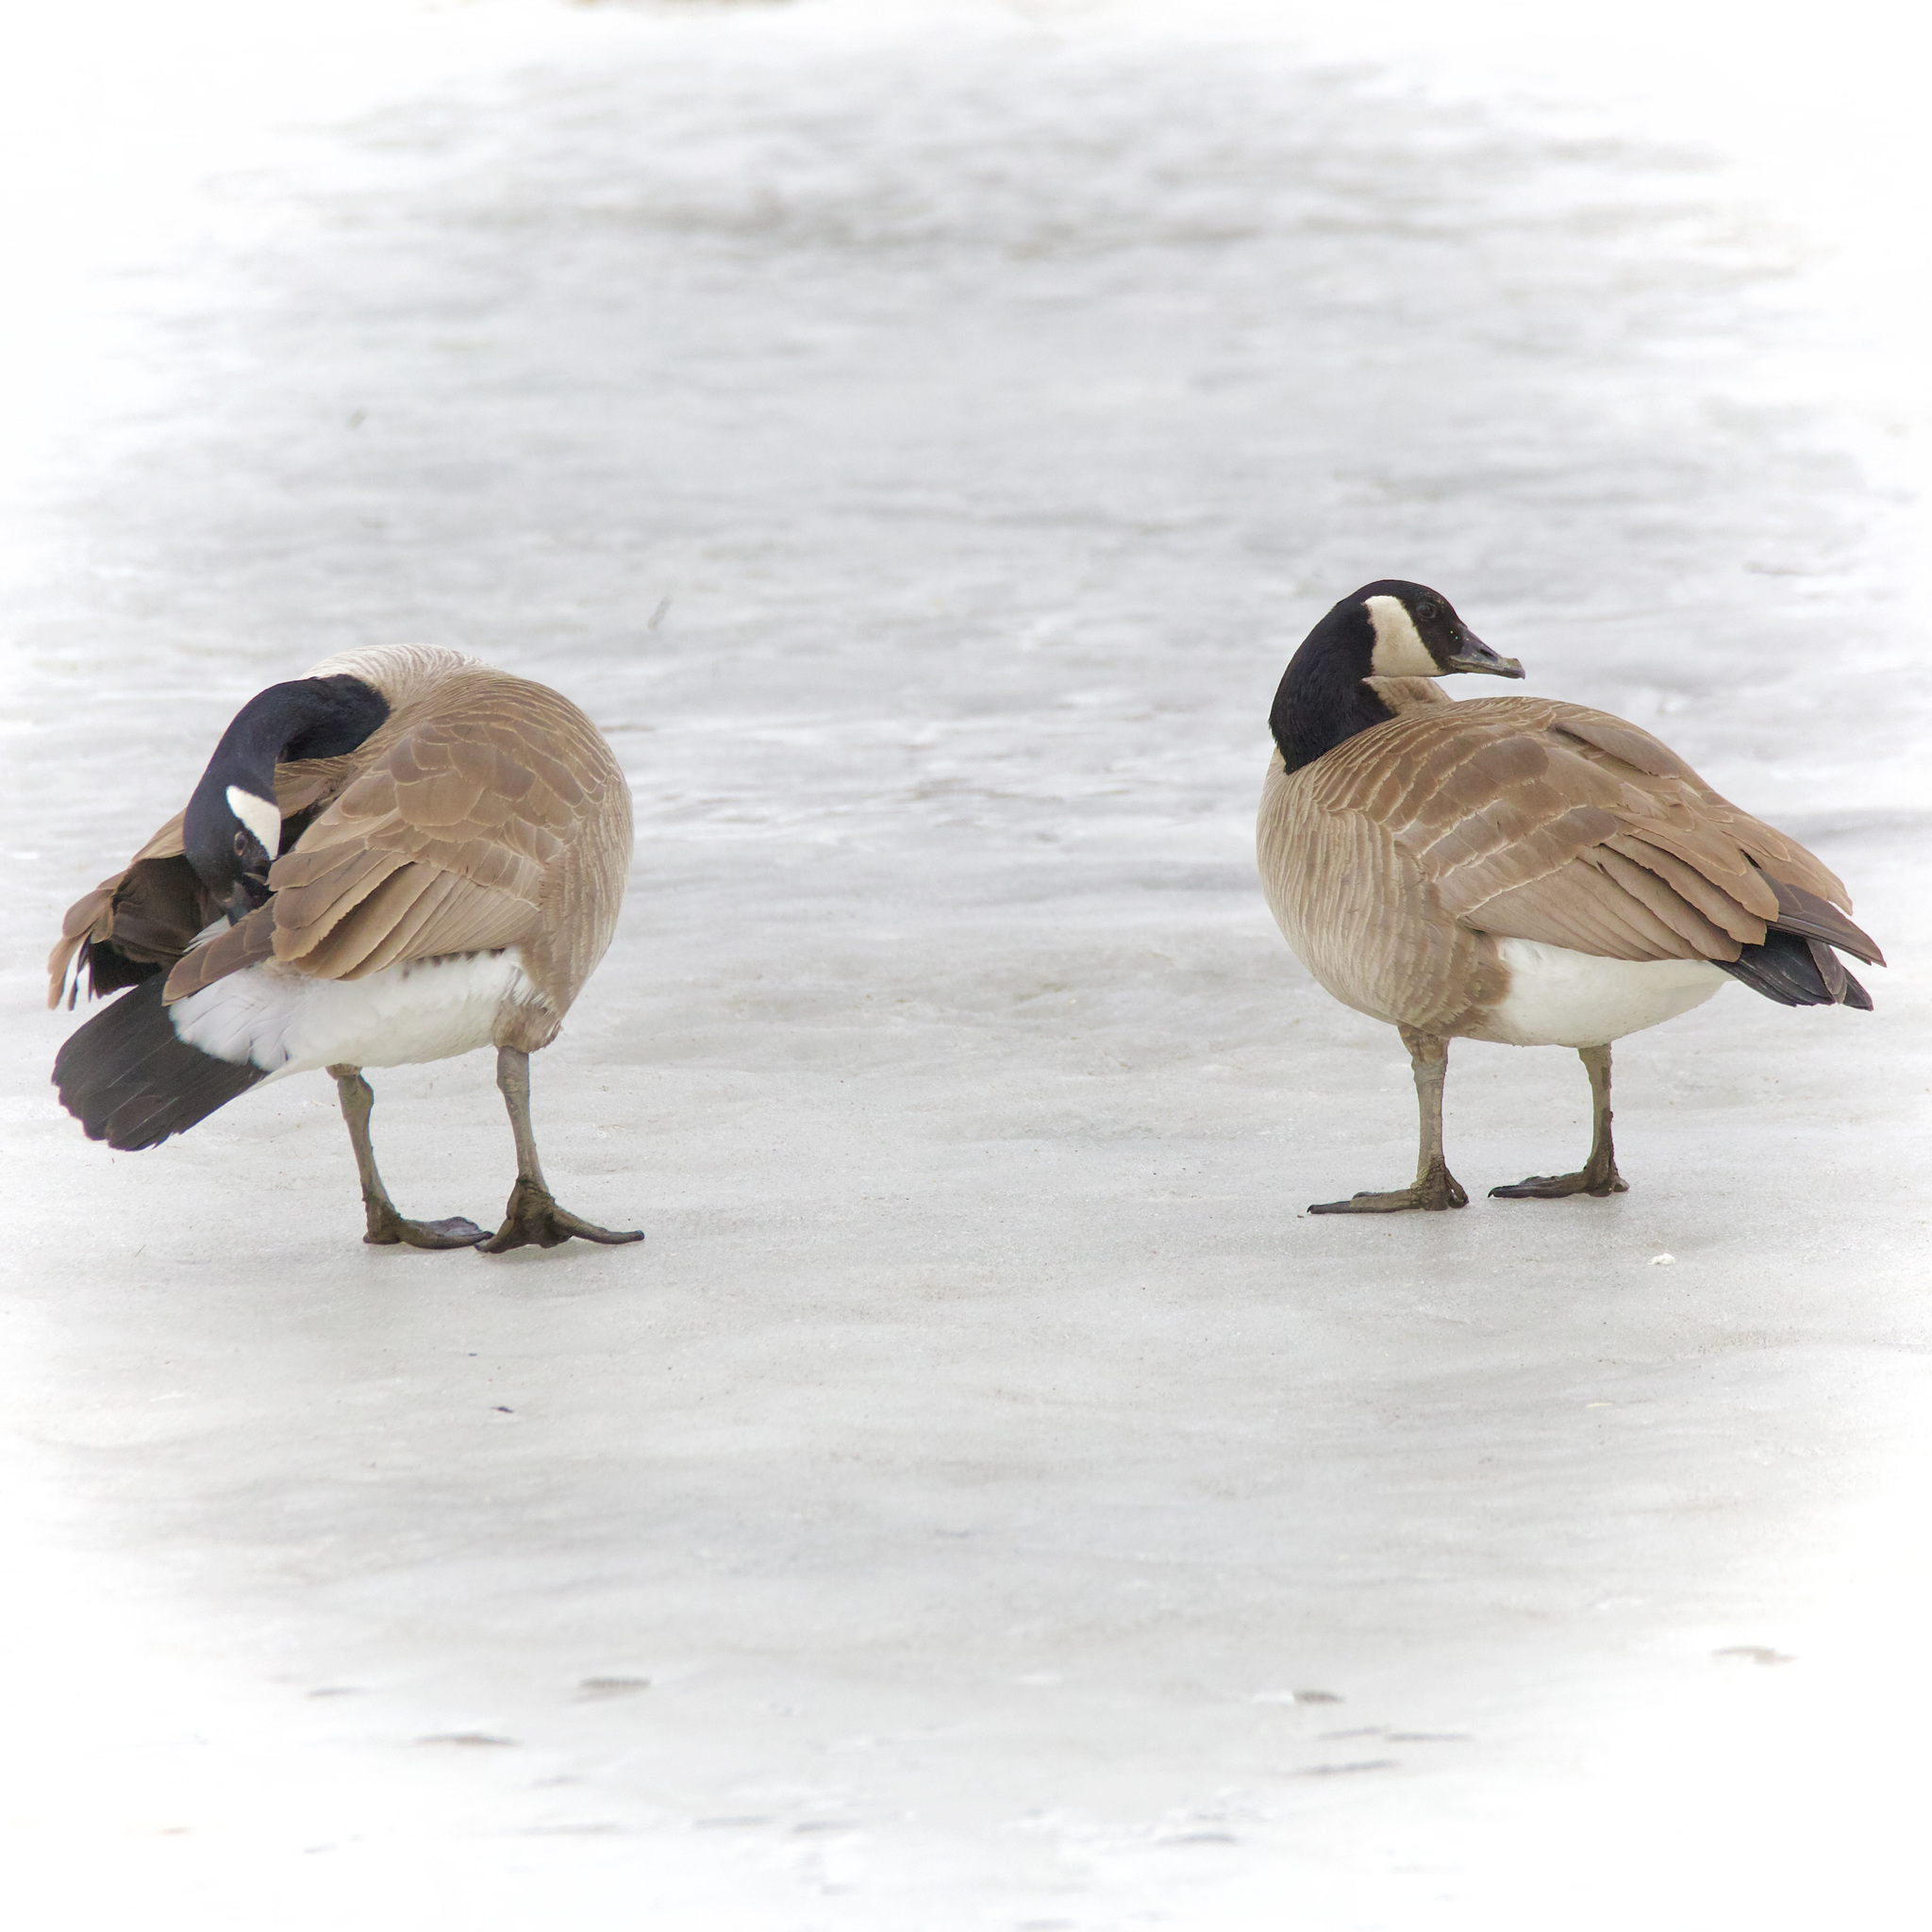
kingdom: Animalia
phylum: Chordata
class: Aves
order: Anseriformes
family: Anatidae
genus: Branta
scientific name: Branta canadensis
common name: Canada goose
